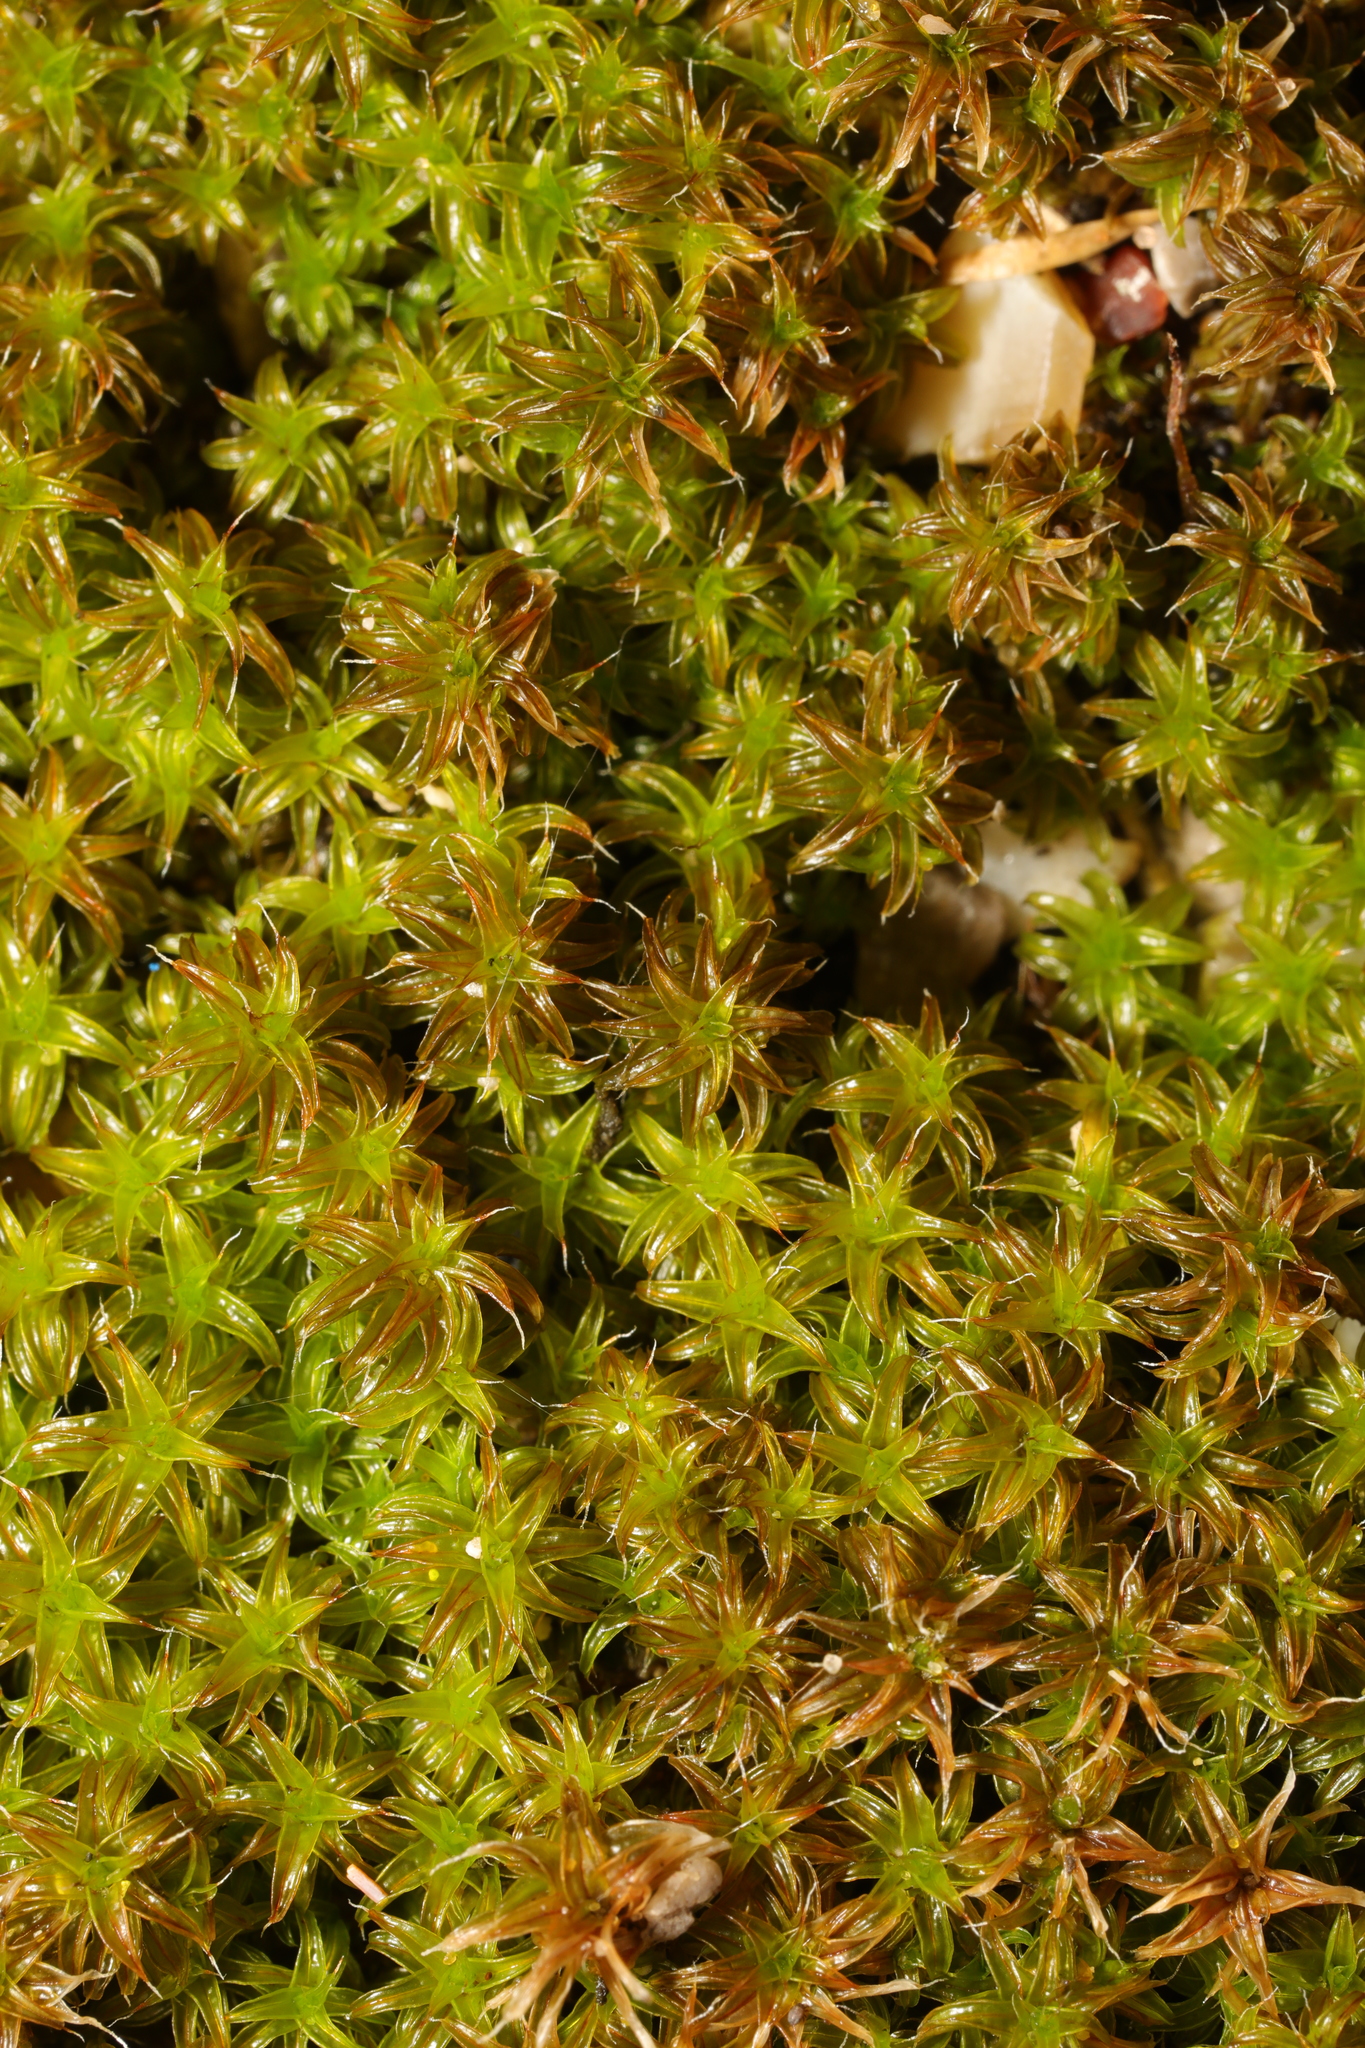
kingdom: Plantae
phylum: Bryophyta
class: Bryopsida
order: Pottiales
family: Pottiaceae
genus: Syntrichia
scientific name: Syntrichia ruralis
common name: Sidewalk screw moss
